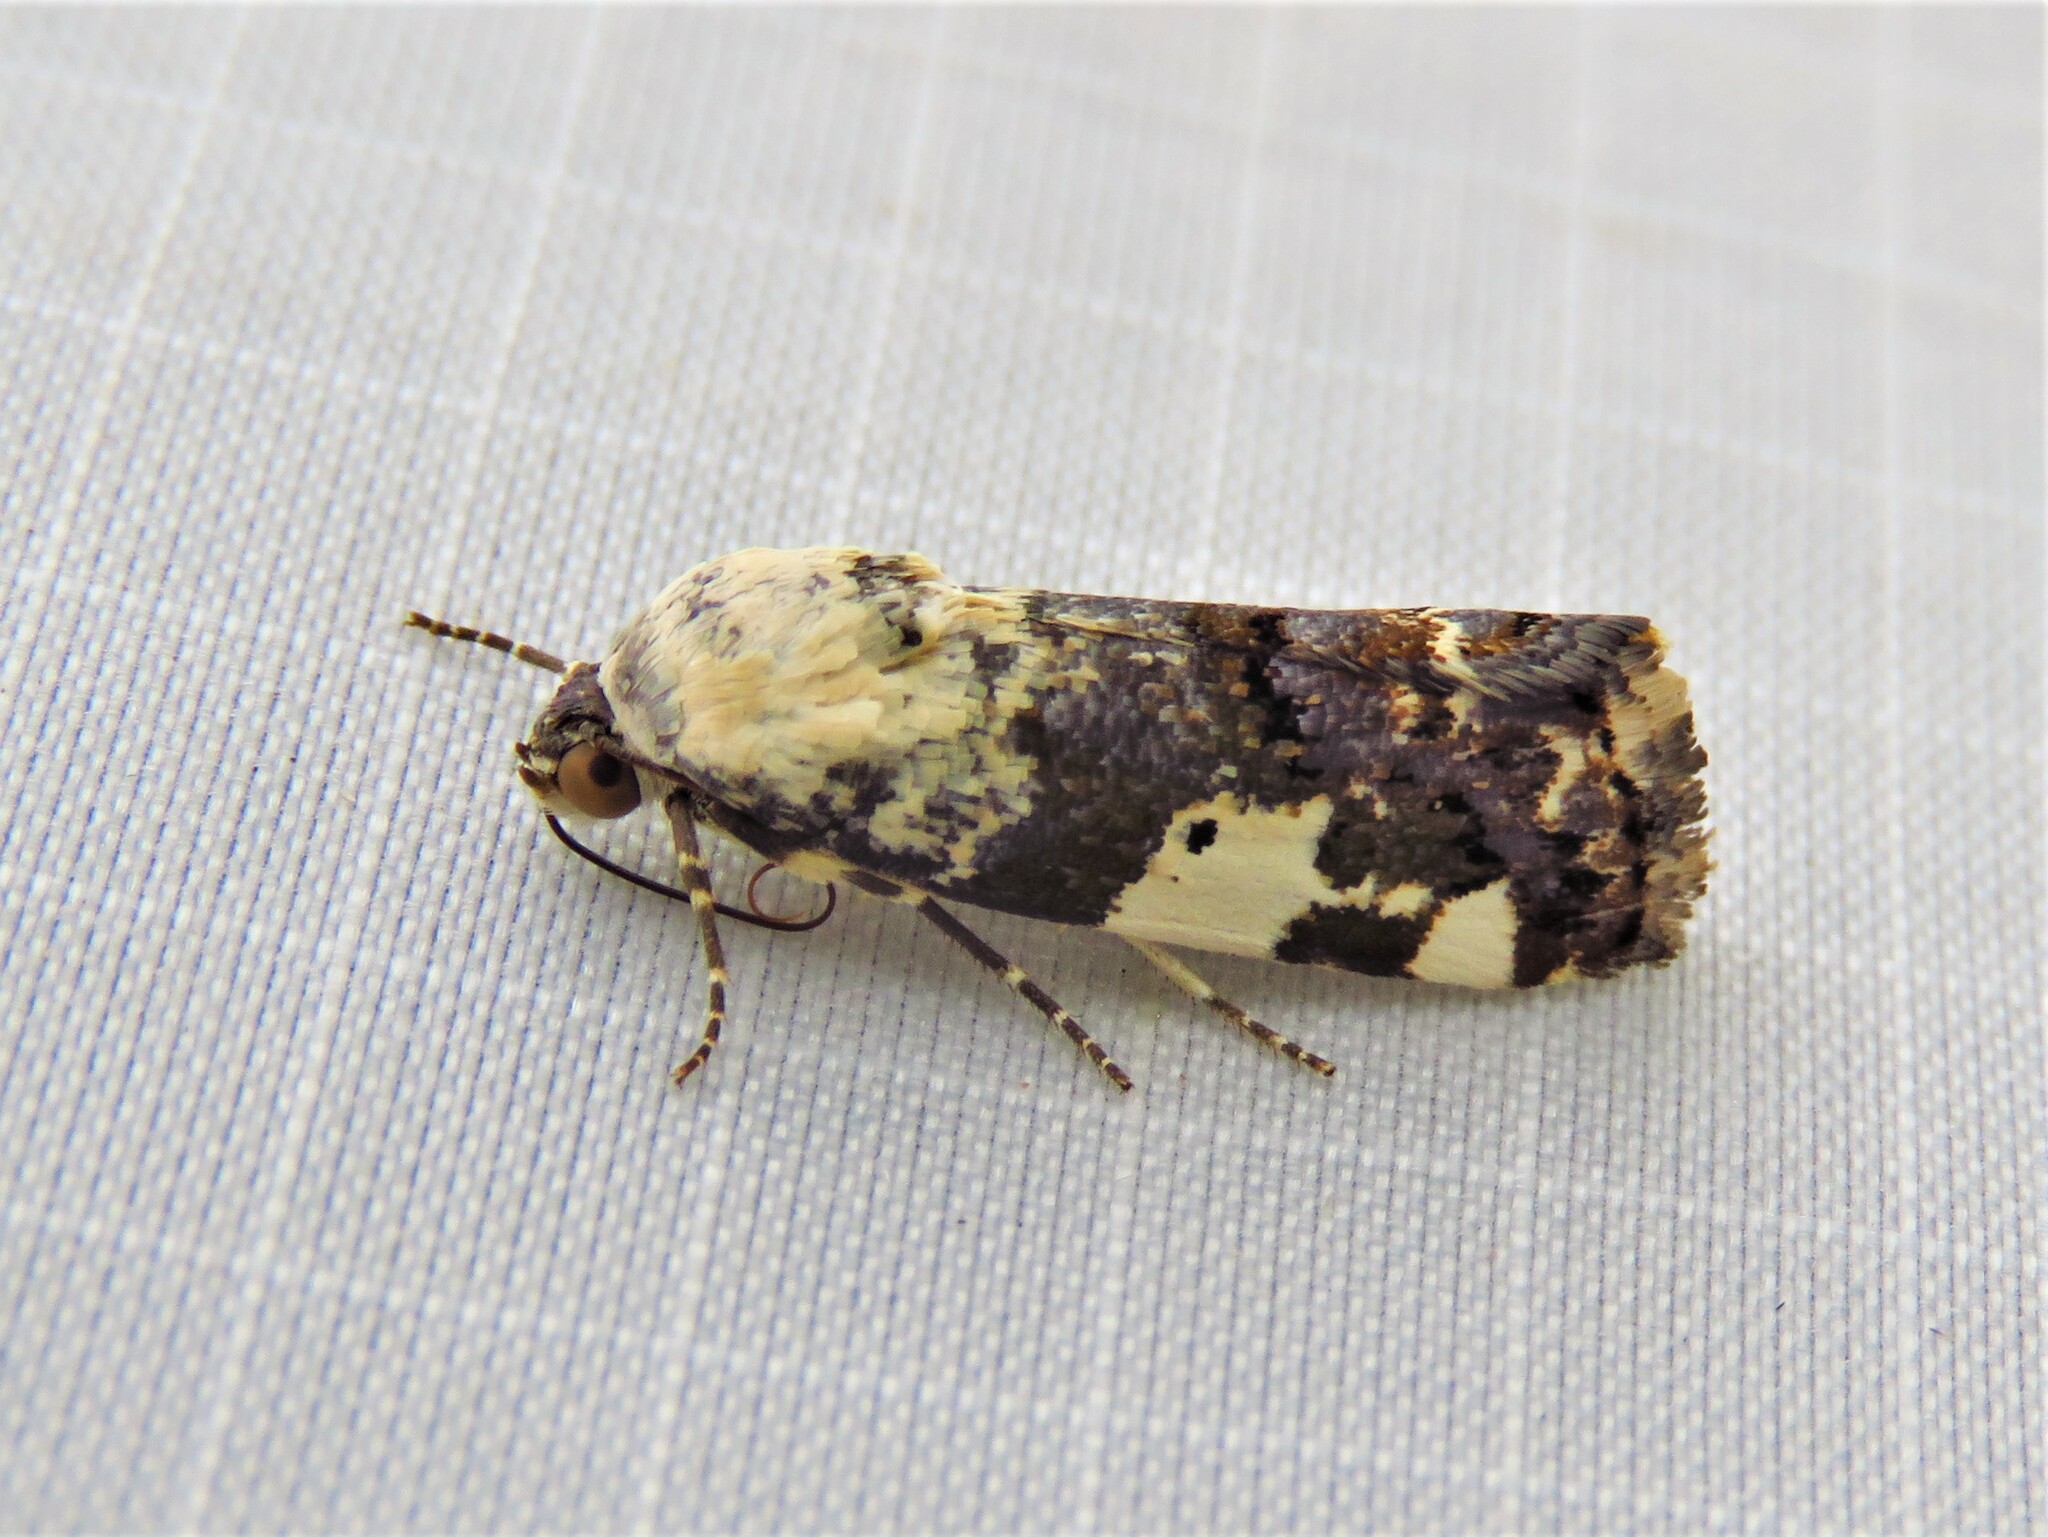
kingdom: Animalia
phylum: Arthropoda
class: Insecta
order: Lepidoptera
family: Noctuidae
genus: Acontia
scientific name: Acontia aprica
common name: Nun
